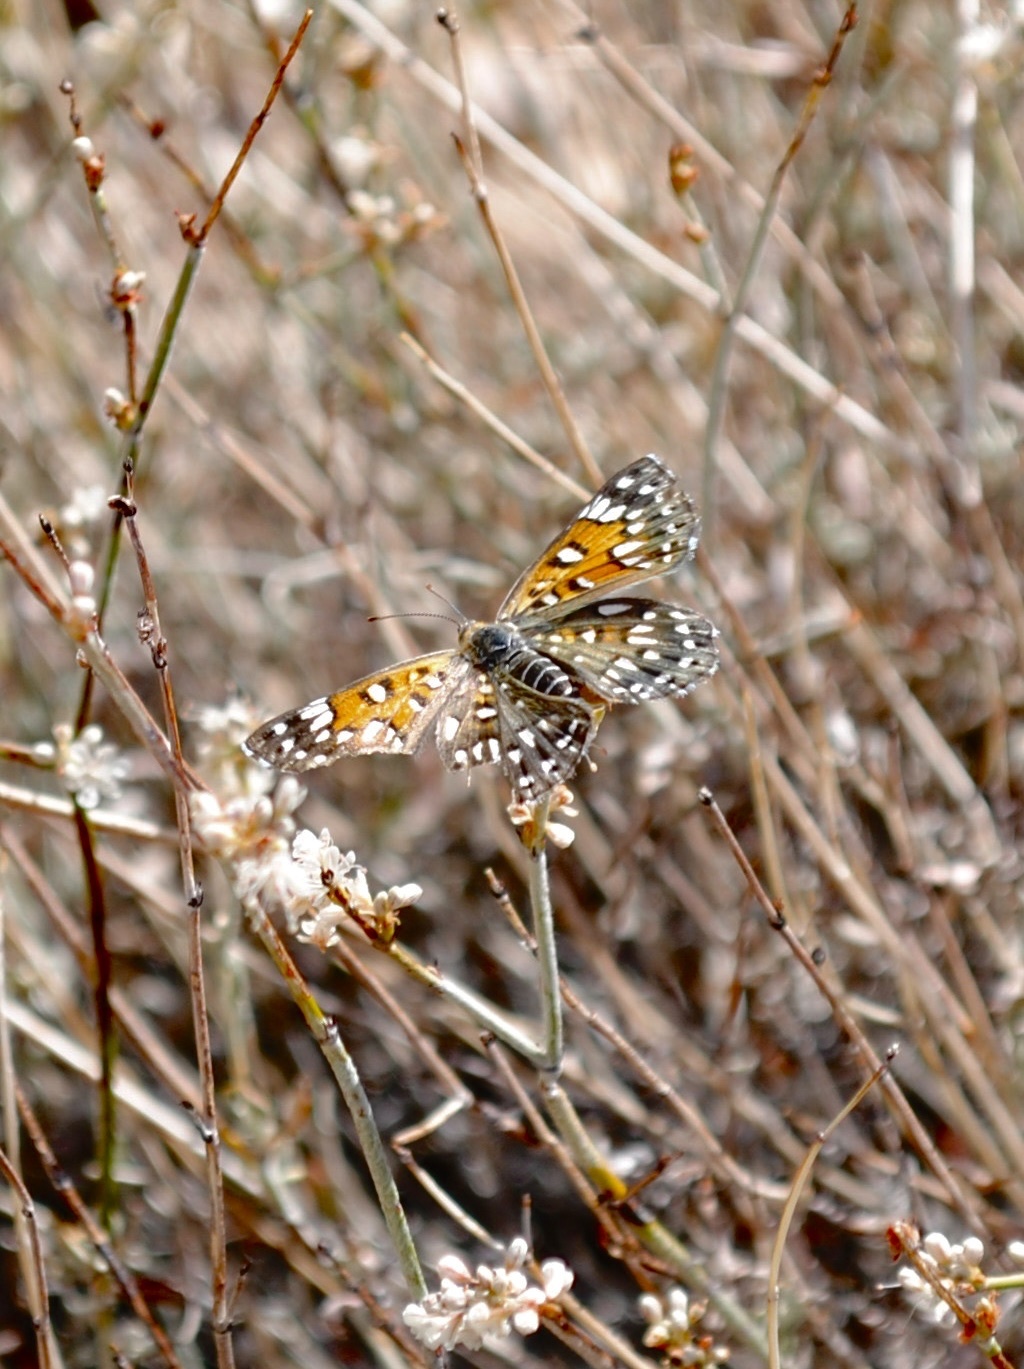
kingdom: Animalia
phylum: Arthropoda
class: Insecta
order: Lepidoptera
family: Riodinidae
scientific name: Riodinidae
